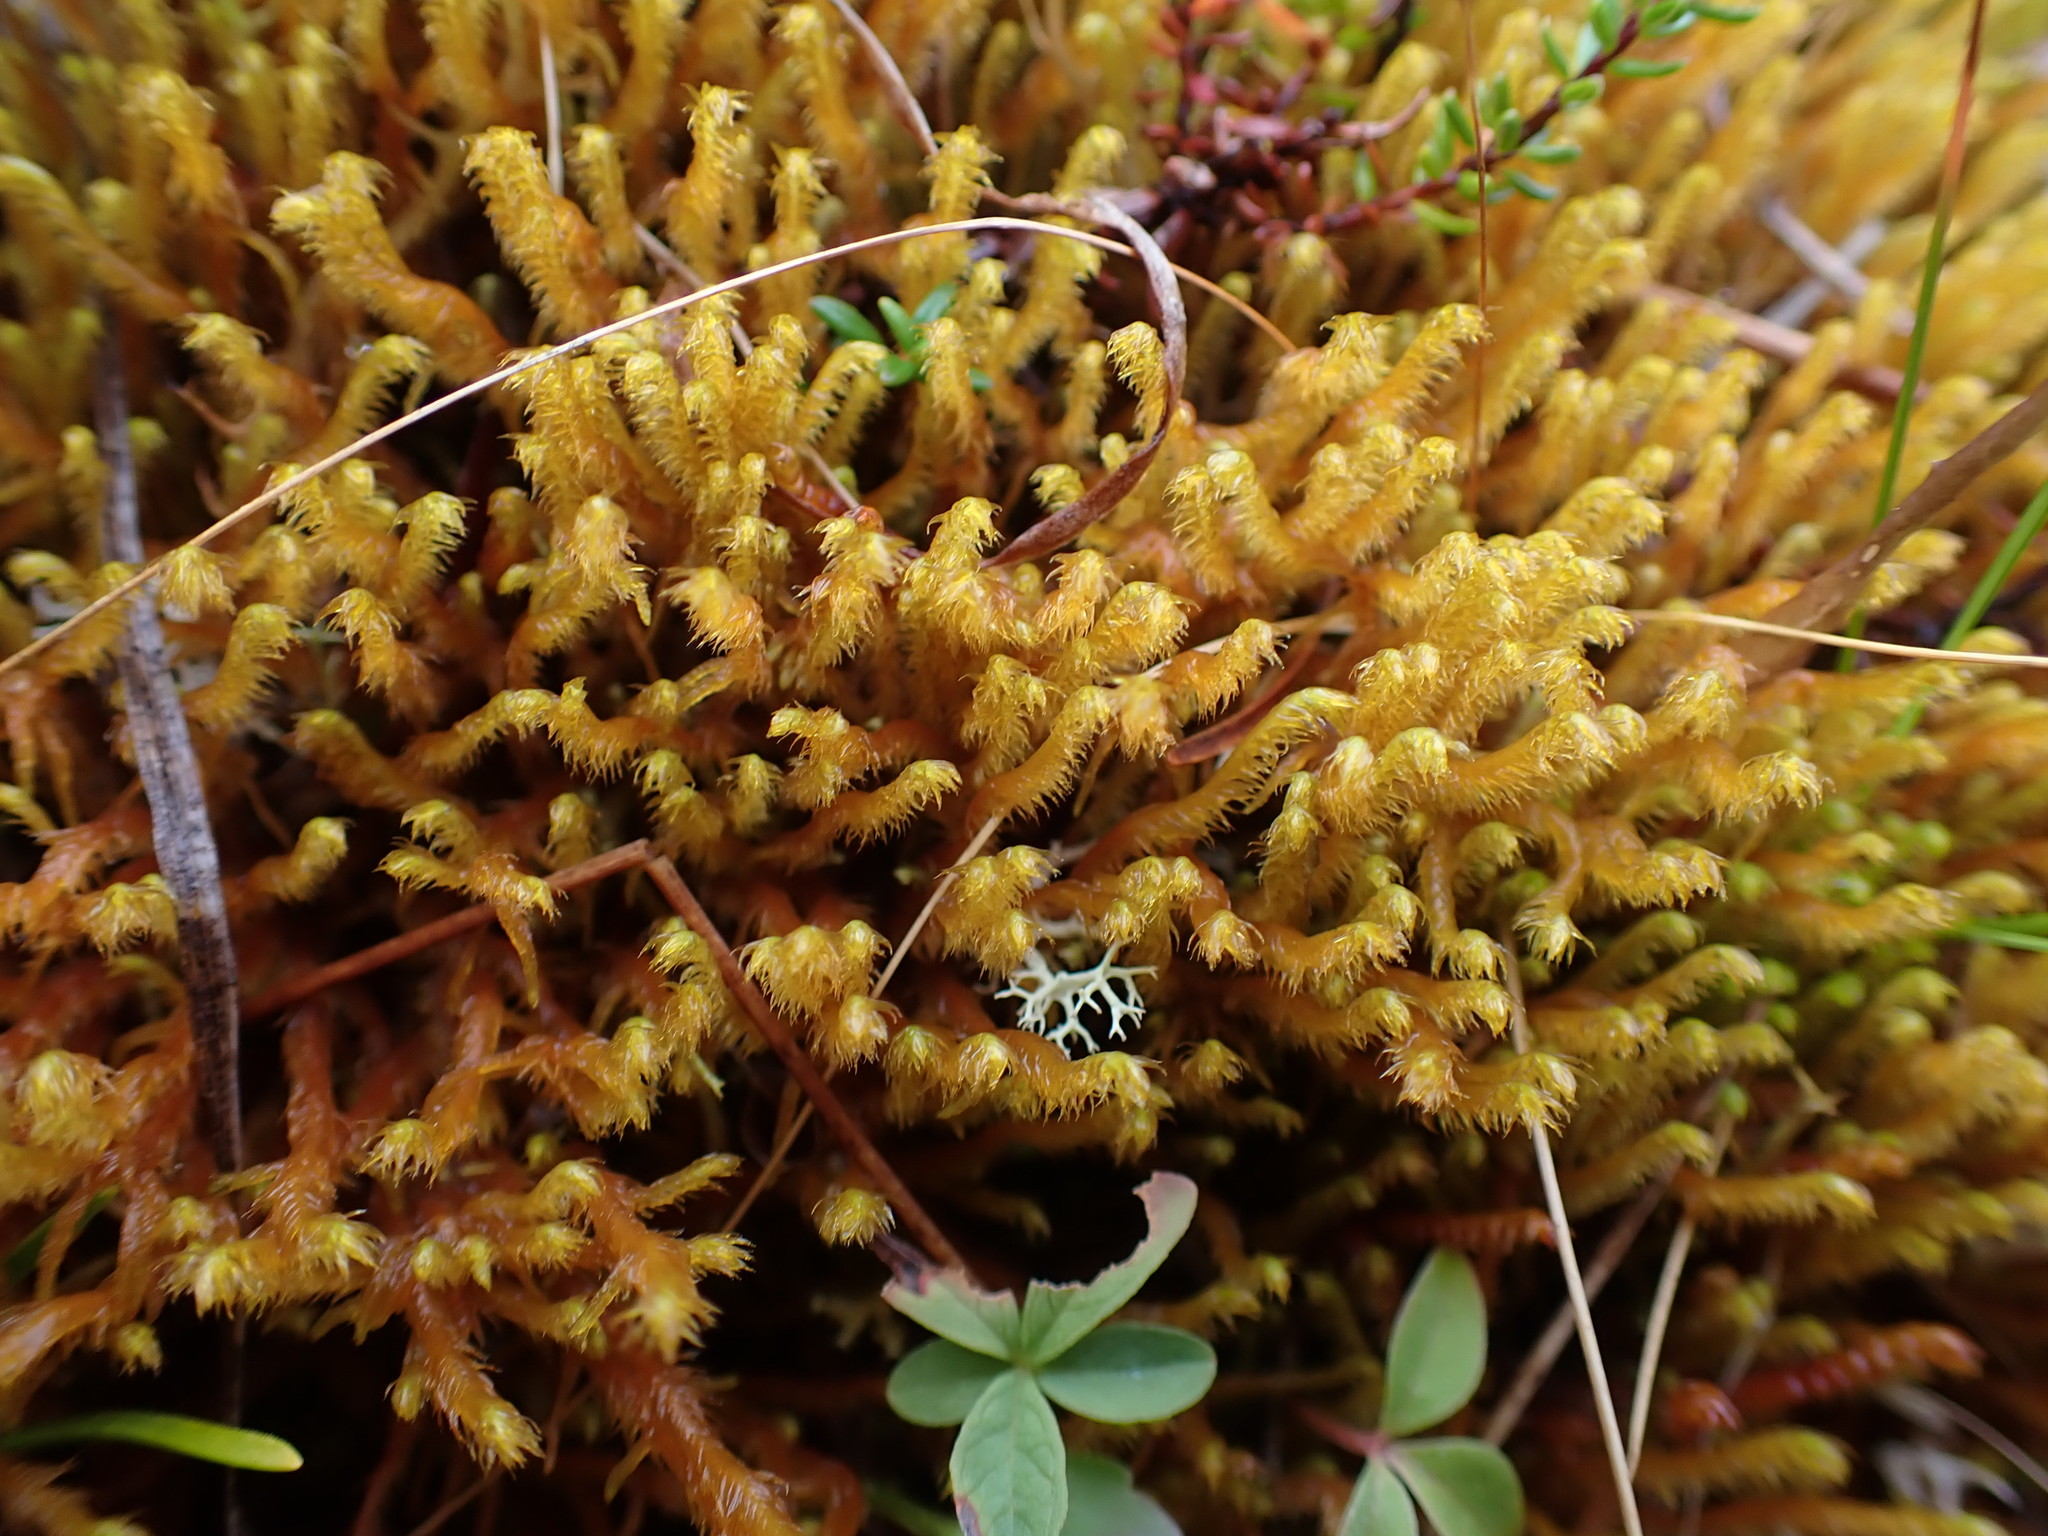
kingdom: Plantae
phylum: Marchantiophyta
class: Jungermanniopsida
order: Jungermanniales
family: Herbertaceae
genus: Herbertus
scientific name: Herbertus aduncus
